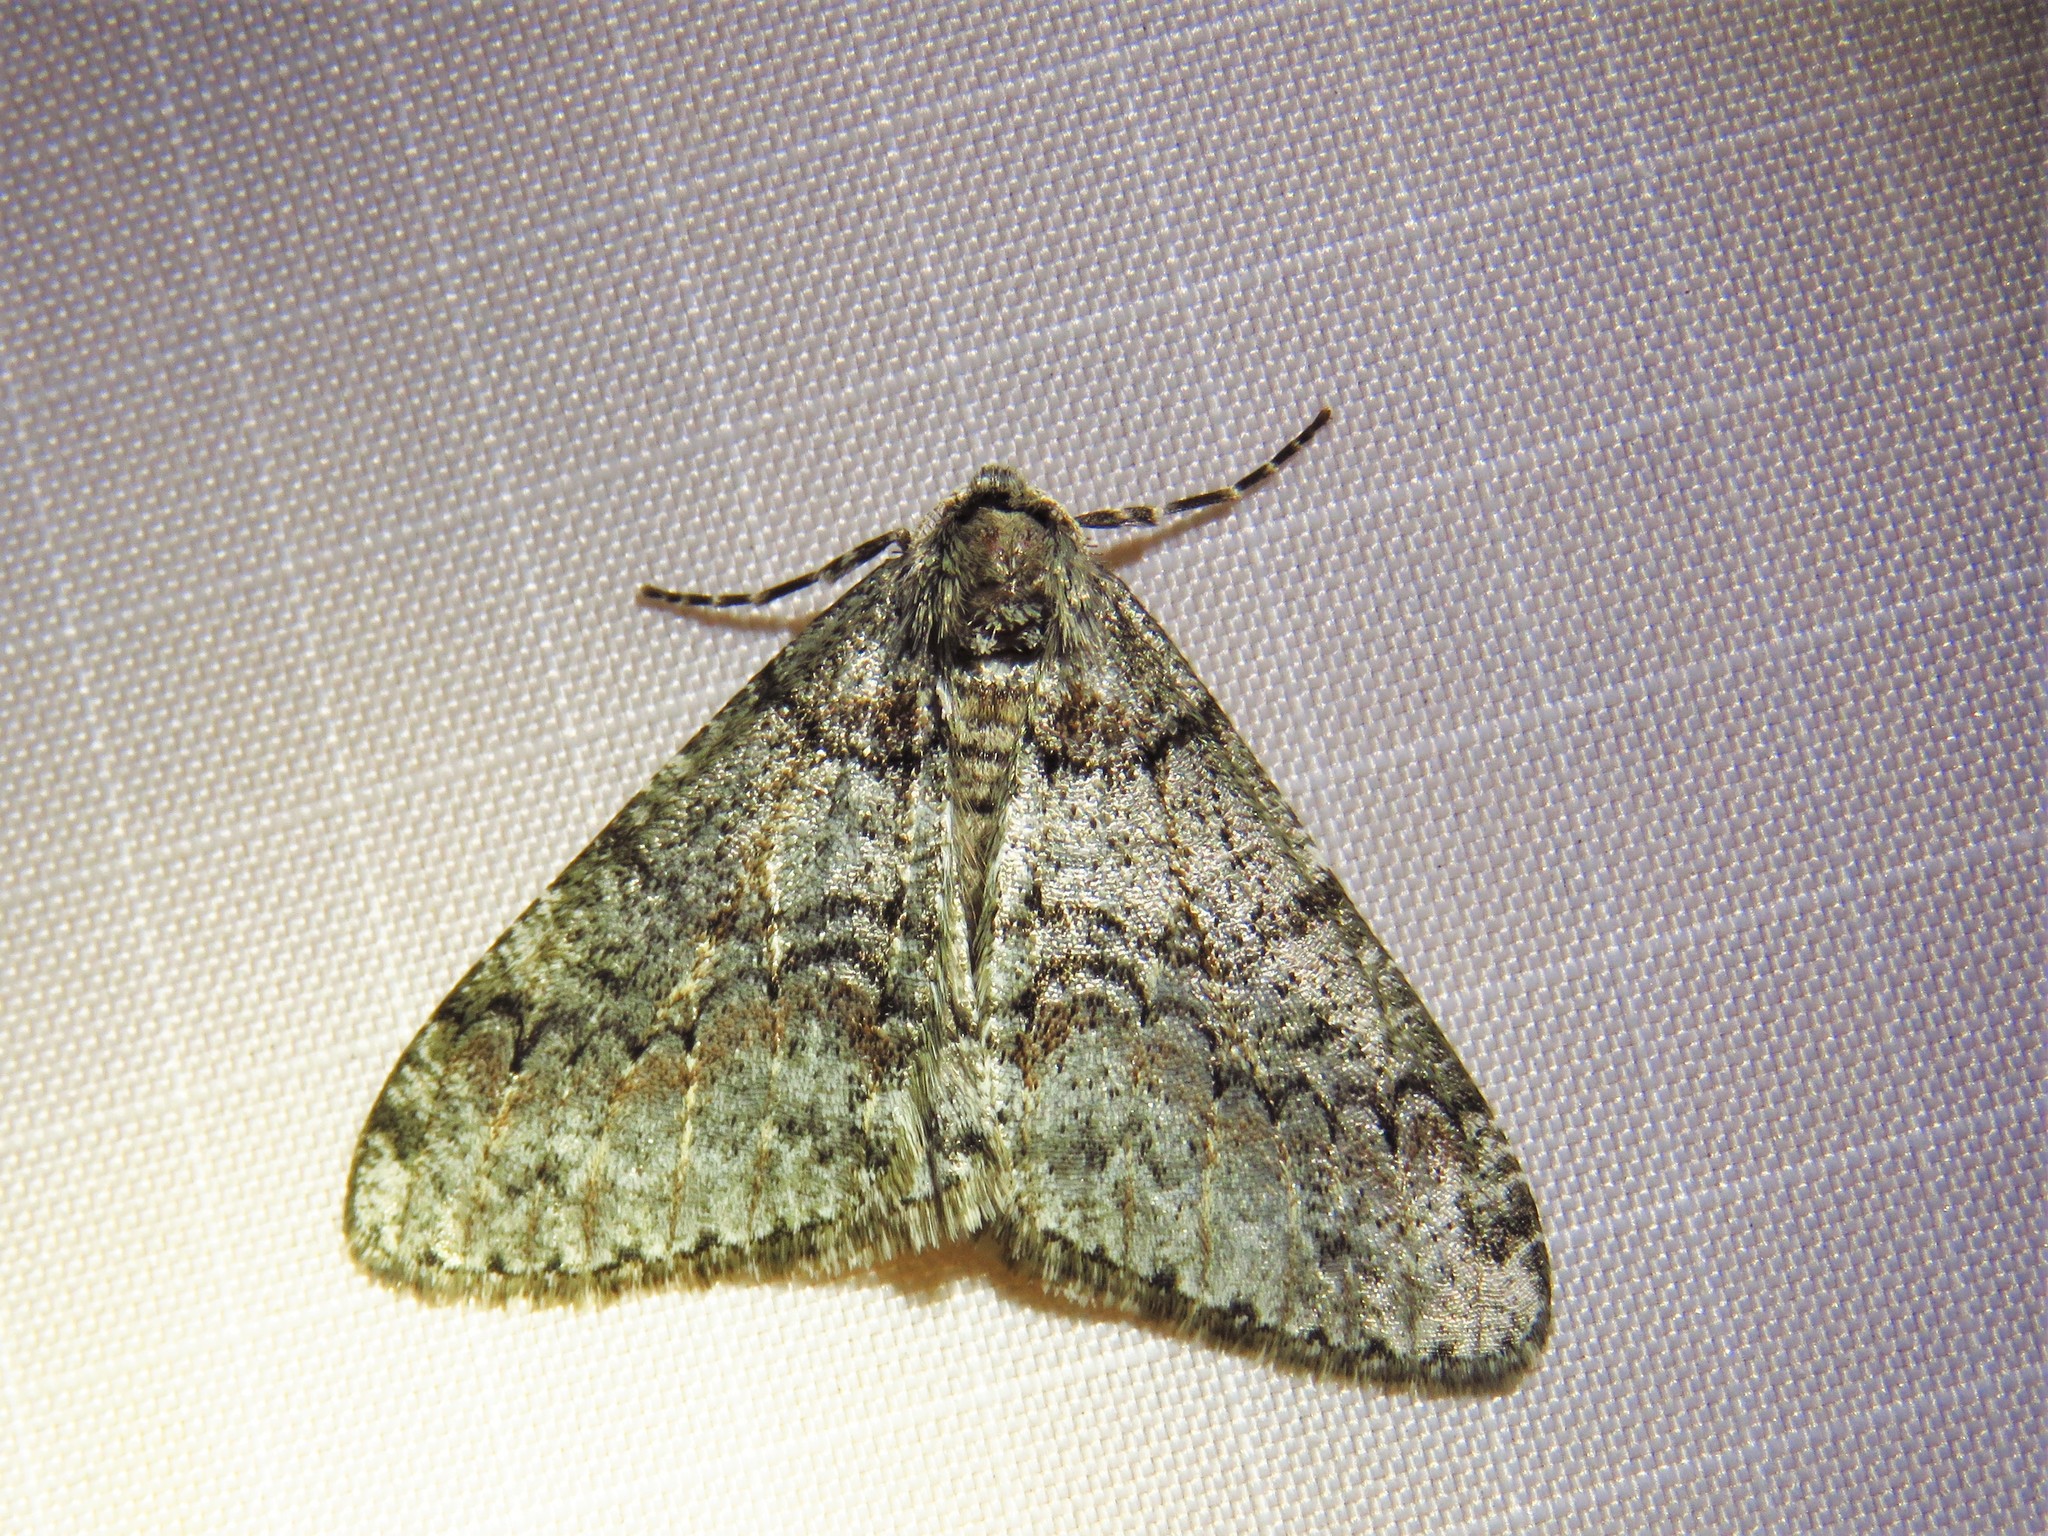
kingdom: Animalia
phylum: Arthropoda
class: Insecta
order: Lepidoptera
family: Geometridae
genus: Phigalia
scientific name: Phigalia denticulata
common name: Toothed phigalia
